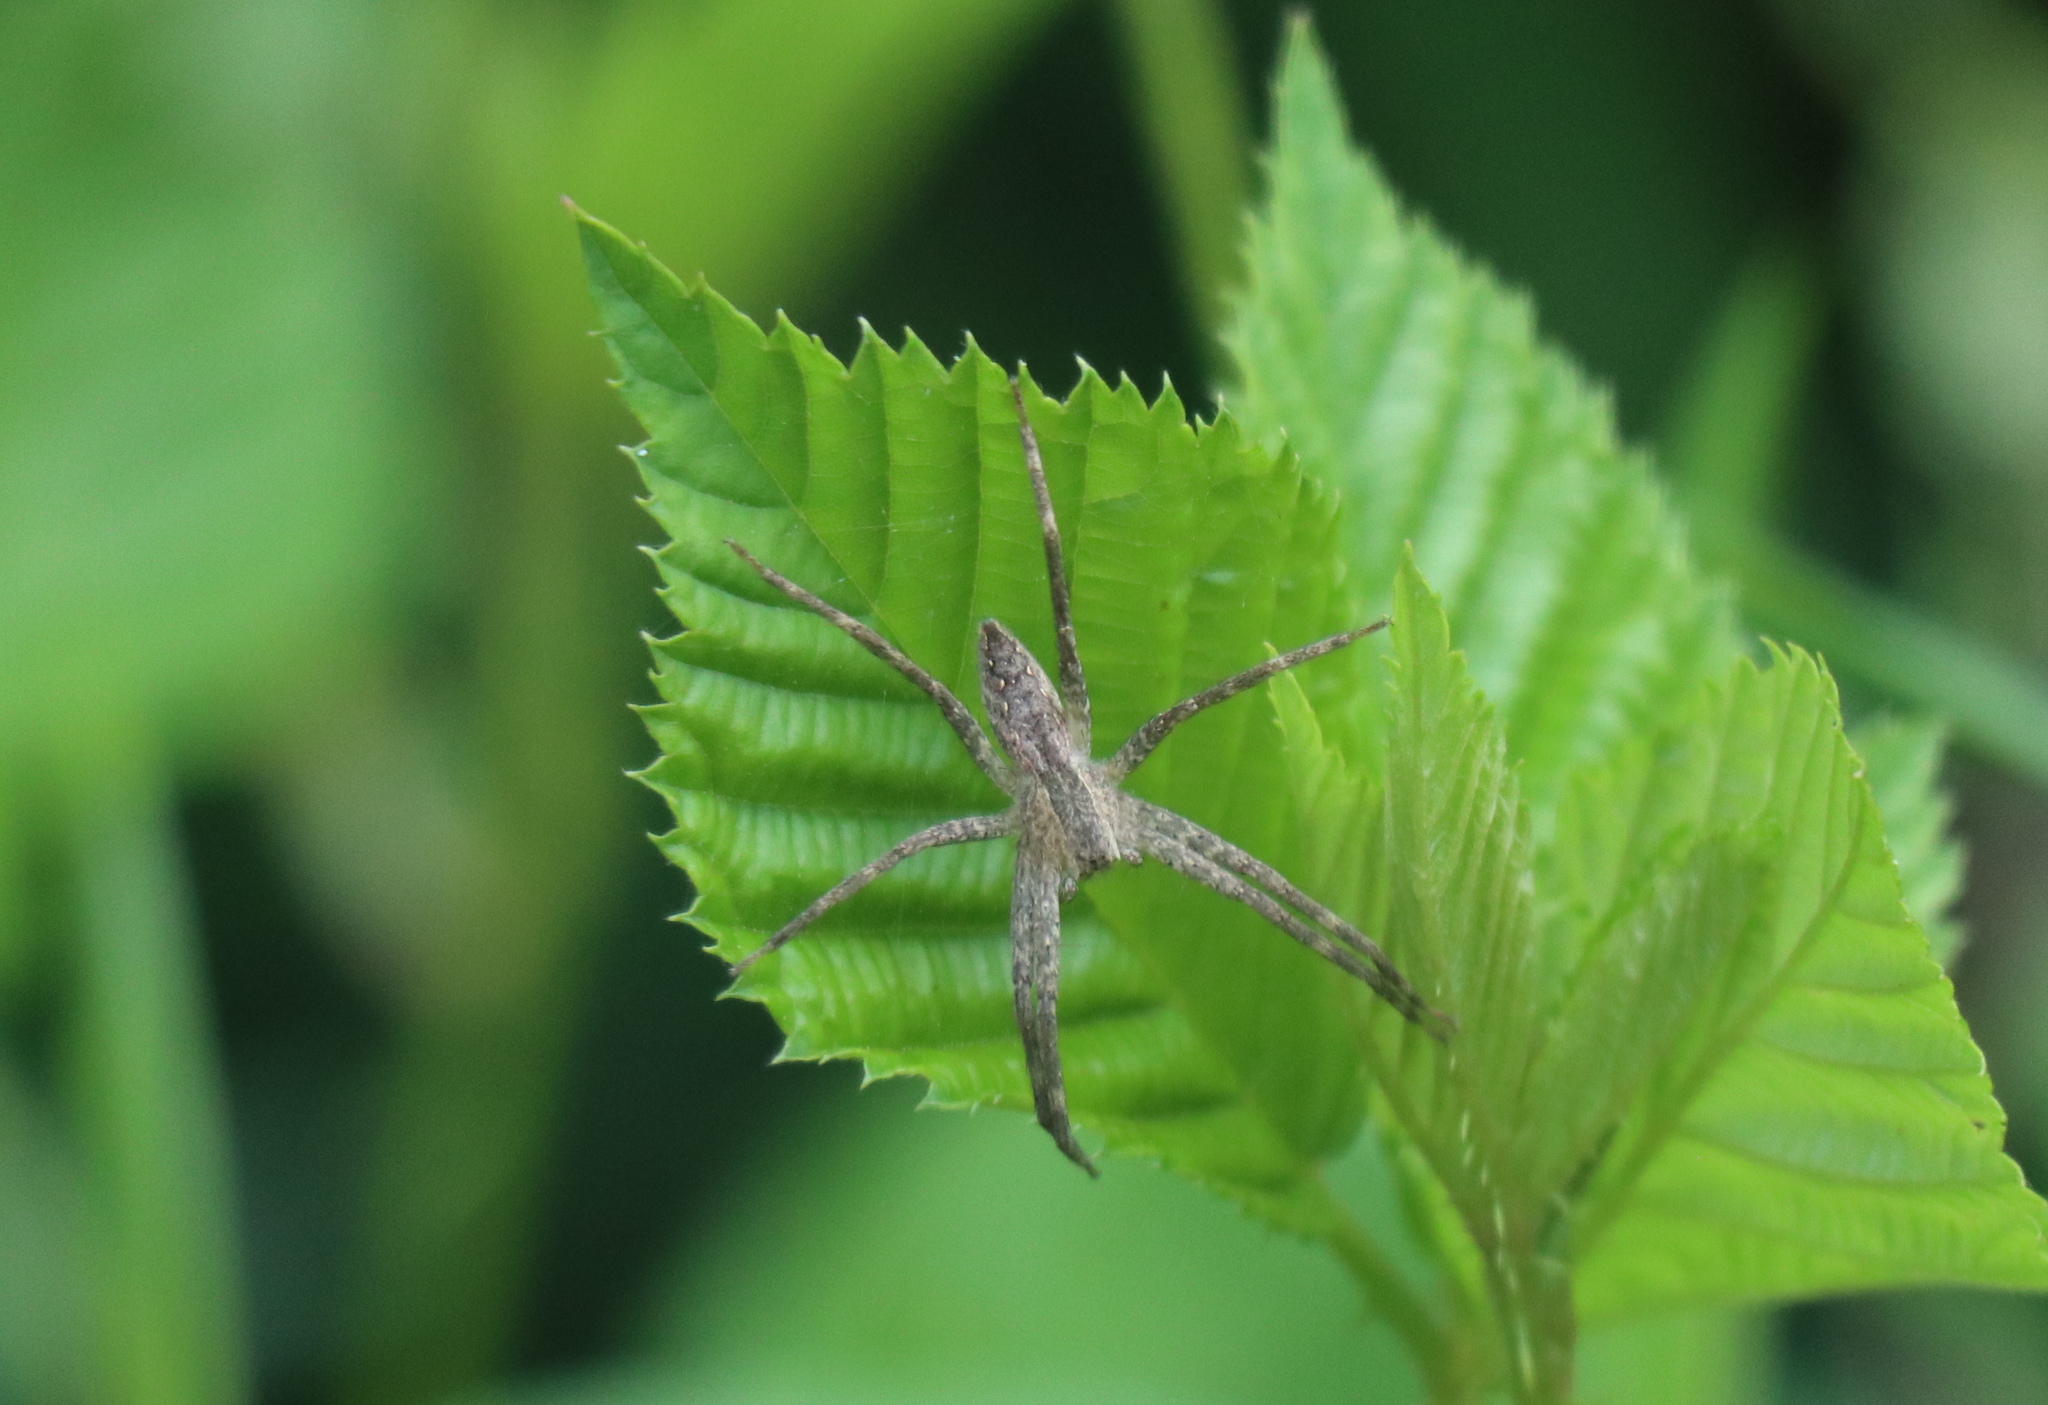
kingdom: Animalia
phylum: Arthropoda
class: Arachnida
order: Araneae
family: Pisauridae
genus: Pisaurina
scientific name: Pisaurina mira
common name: American nursery web spider
